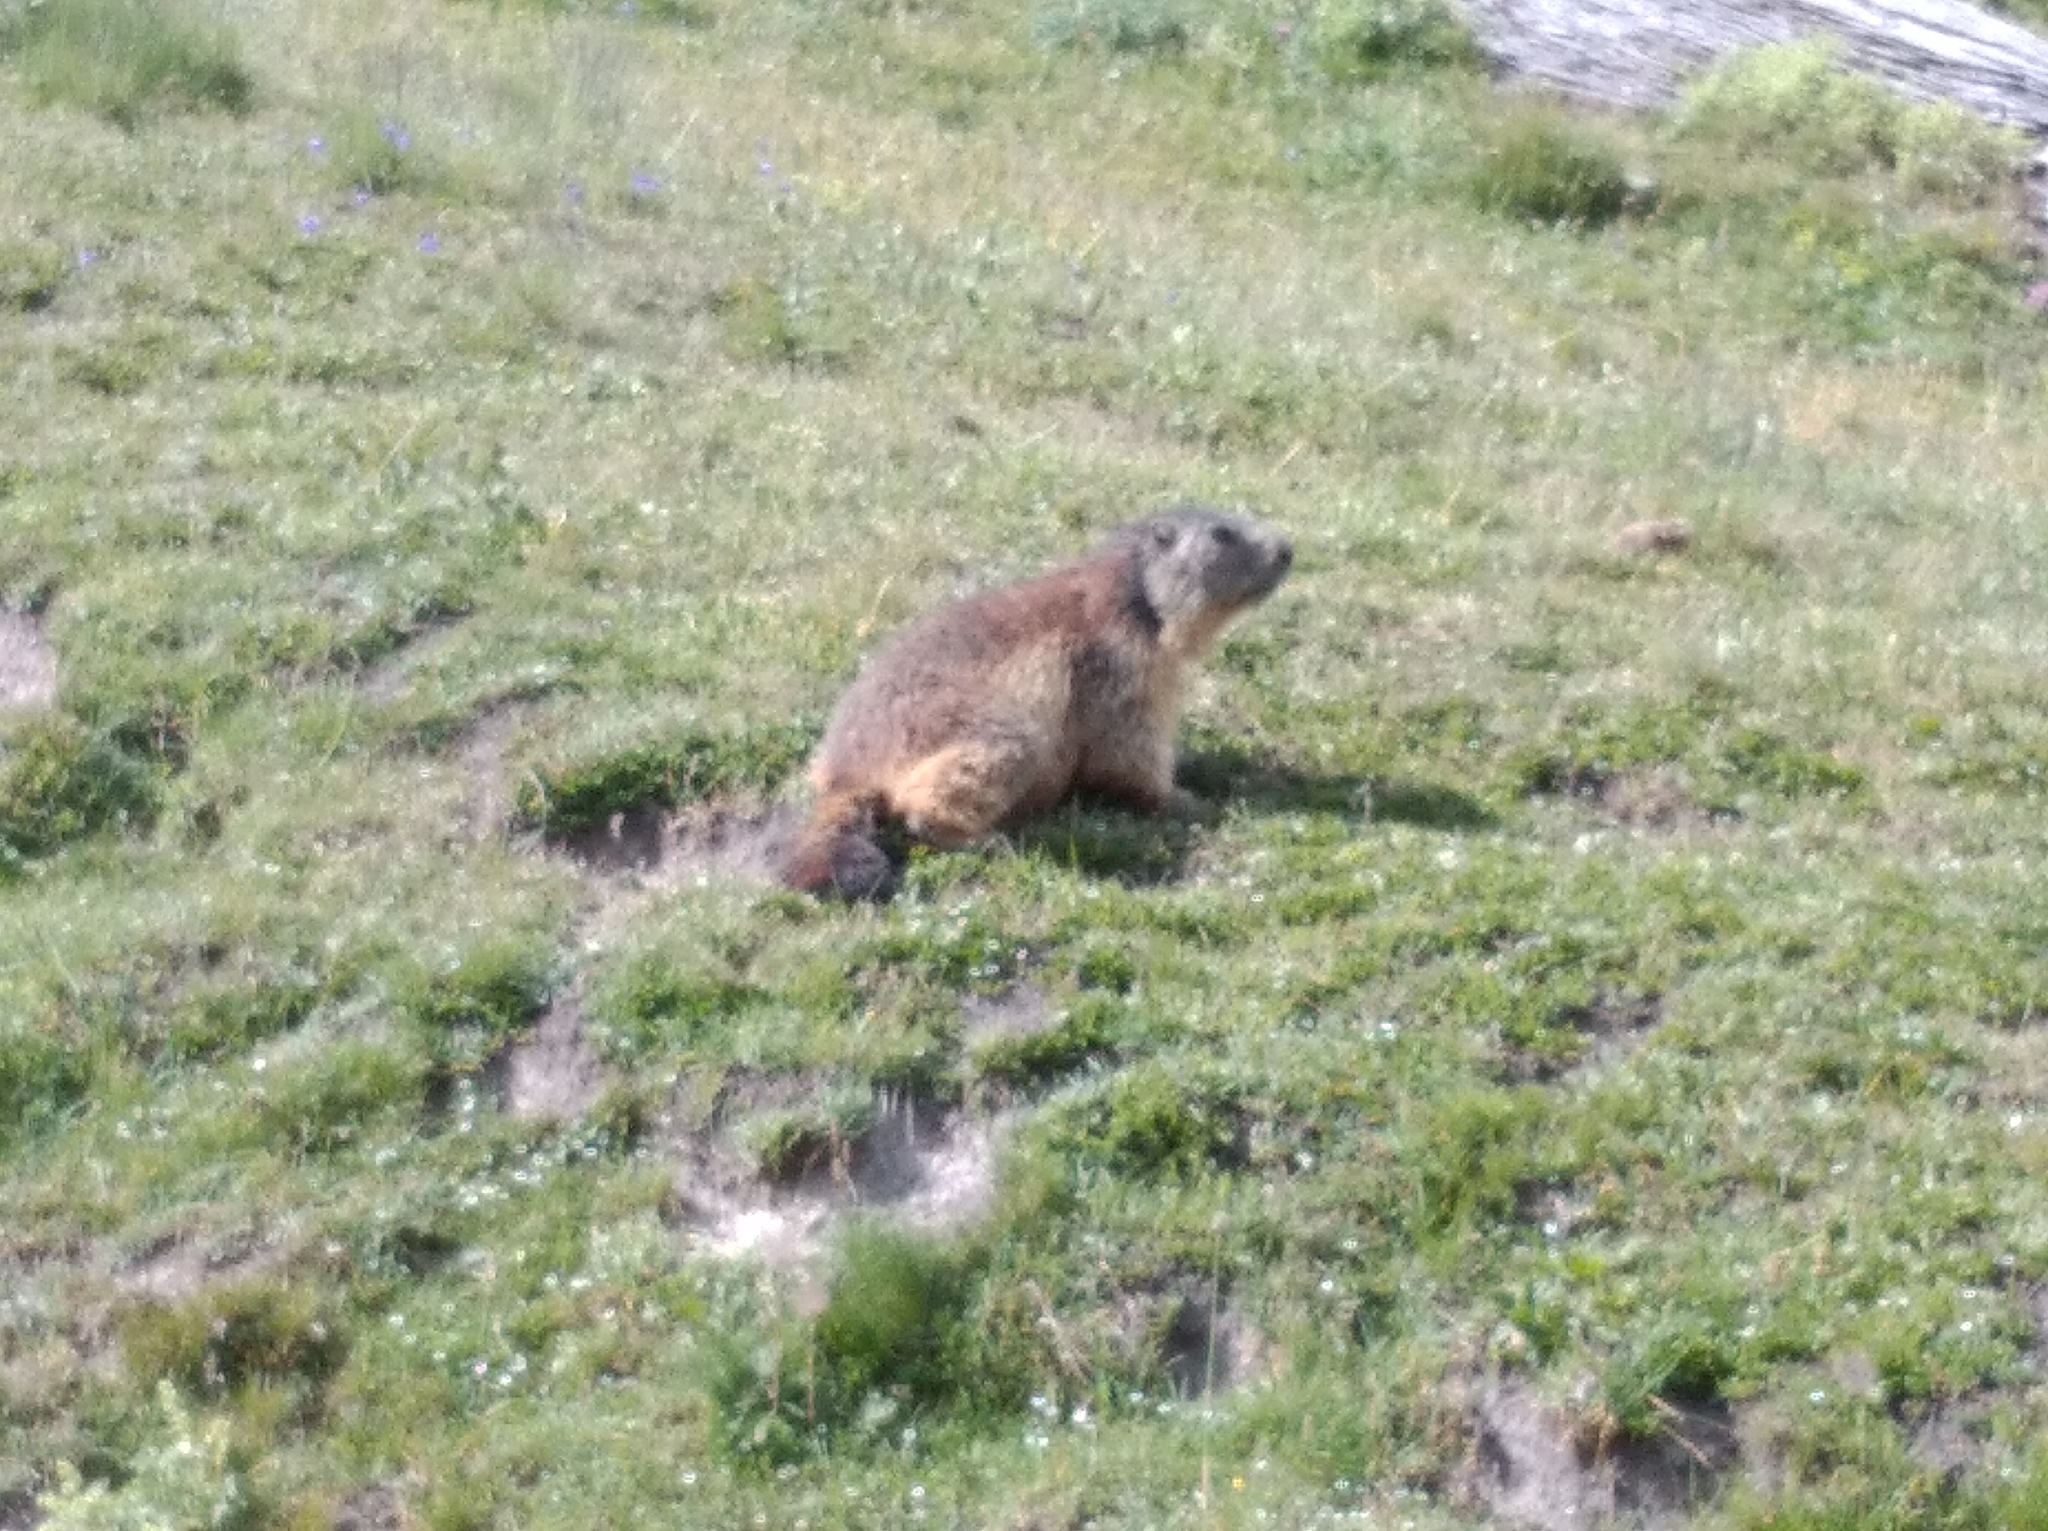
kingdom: Animalia
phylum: Chordata
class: Mammalia
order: Rodentia
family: Sciuridae
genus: Marmota
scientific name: Marmota marmota
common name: Alpine marmot
